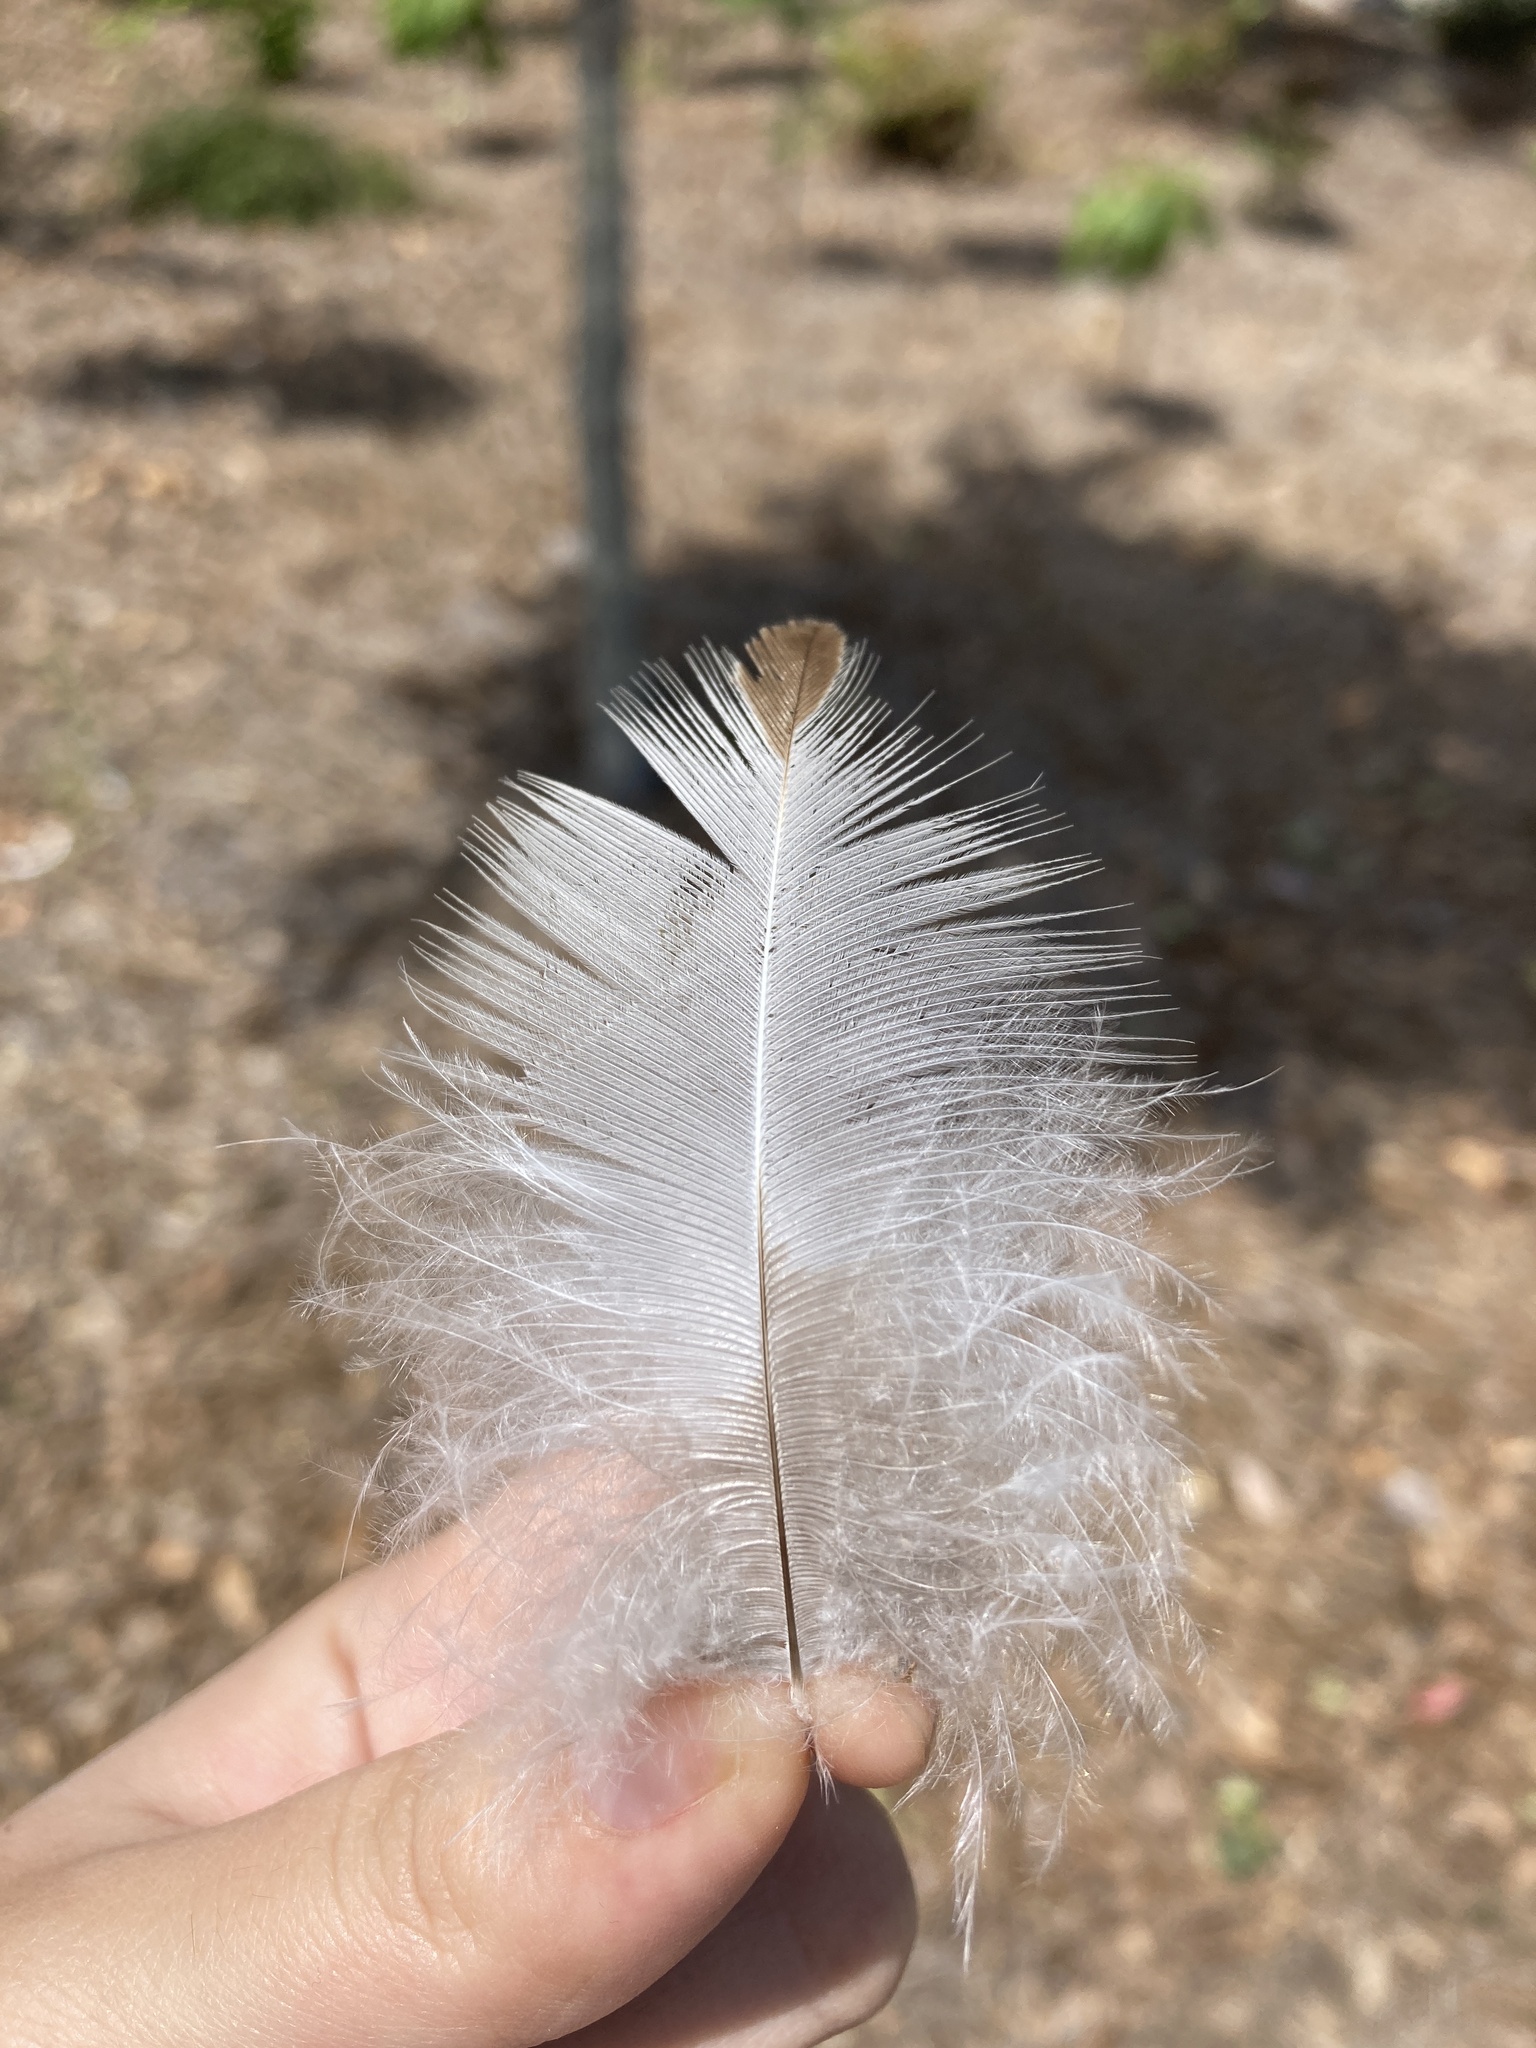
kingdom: Animalia
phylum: Chordata
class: Aves
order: Accipitriformes
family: Accipitridae
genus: Buteo
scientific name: Buteo jamaicensis
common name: Red-tailed hawk
